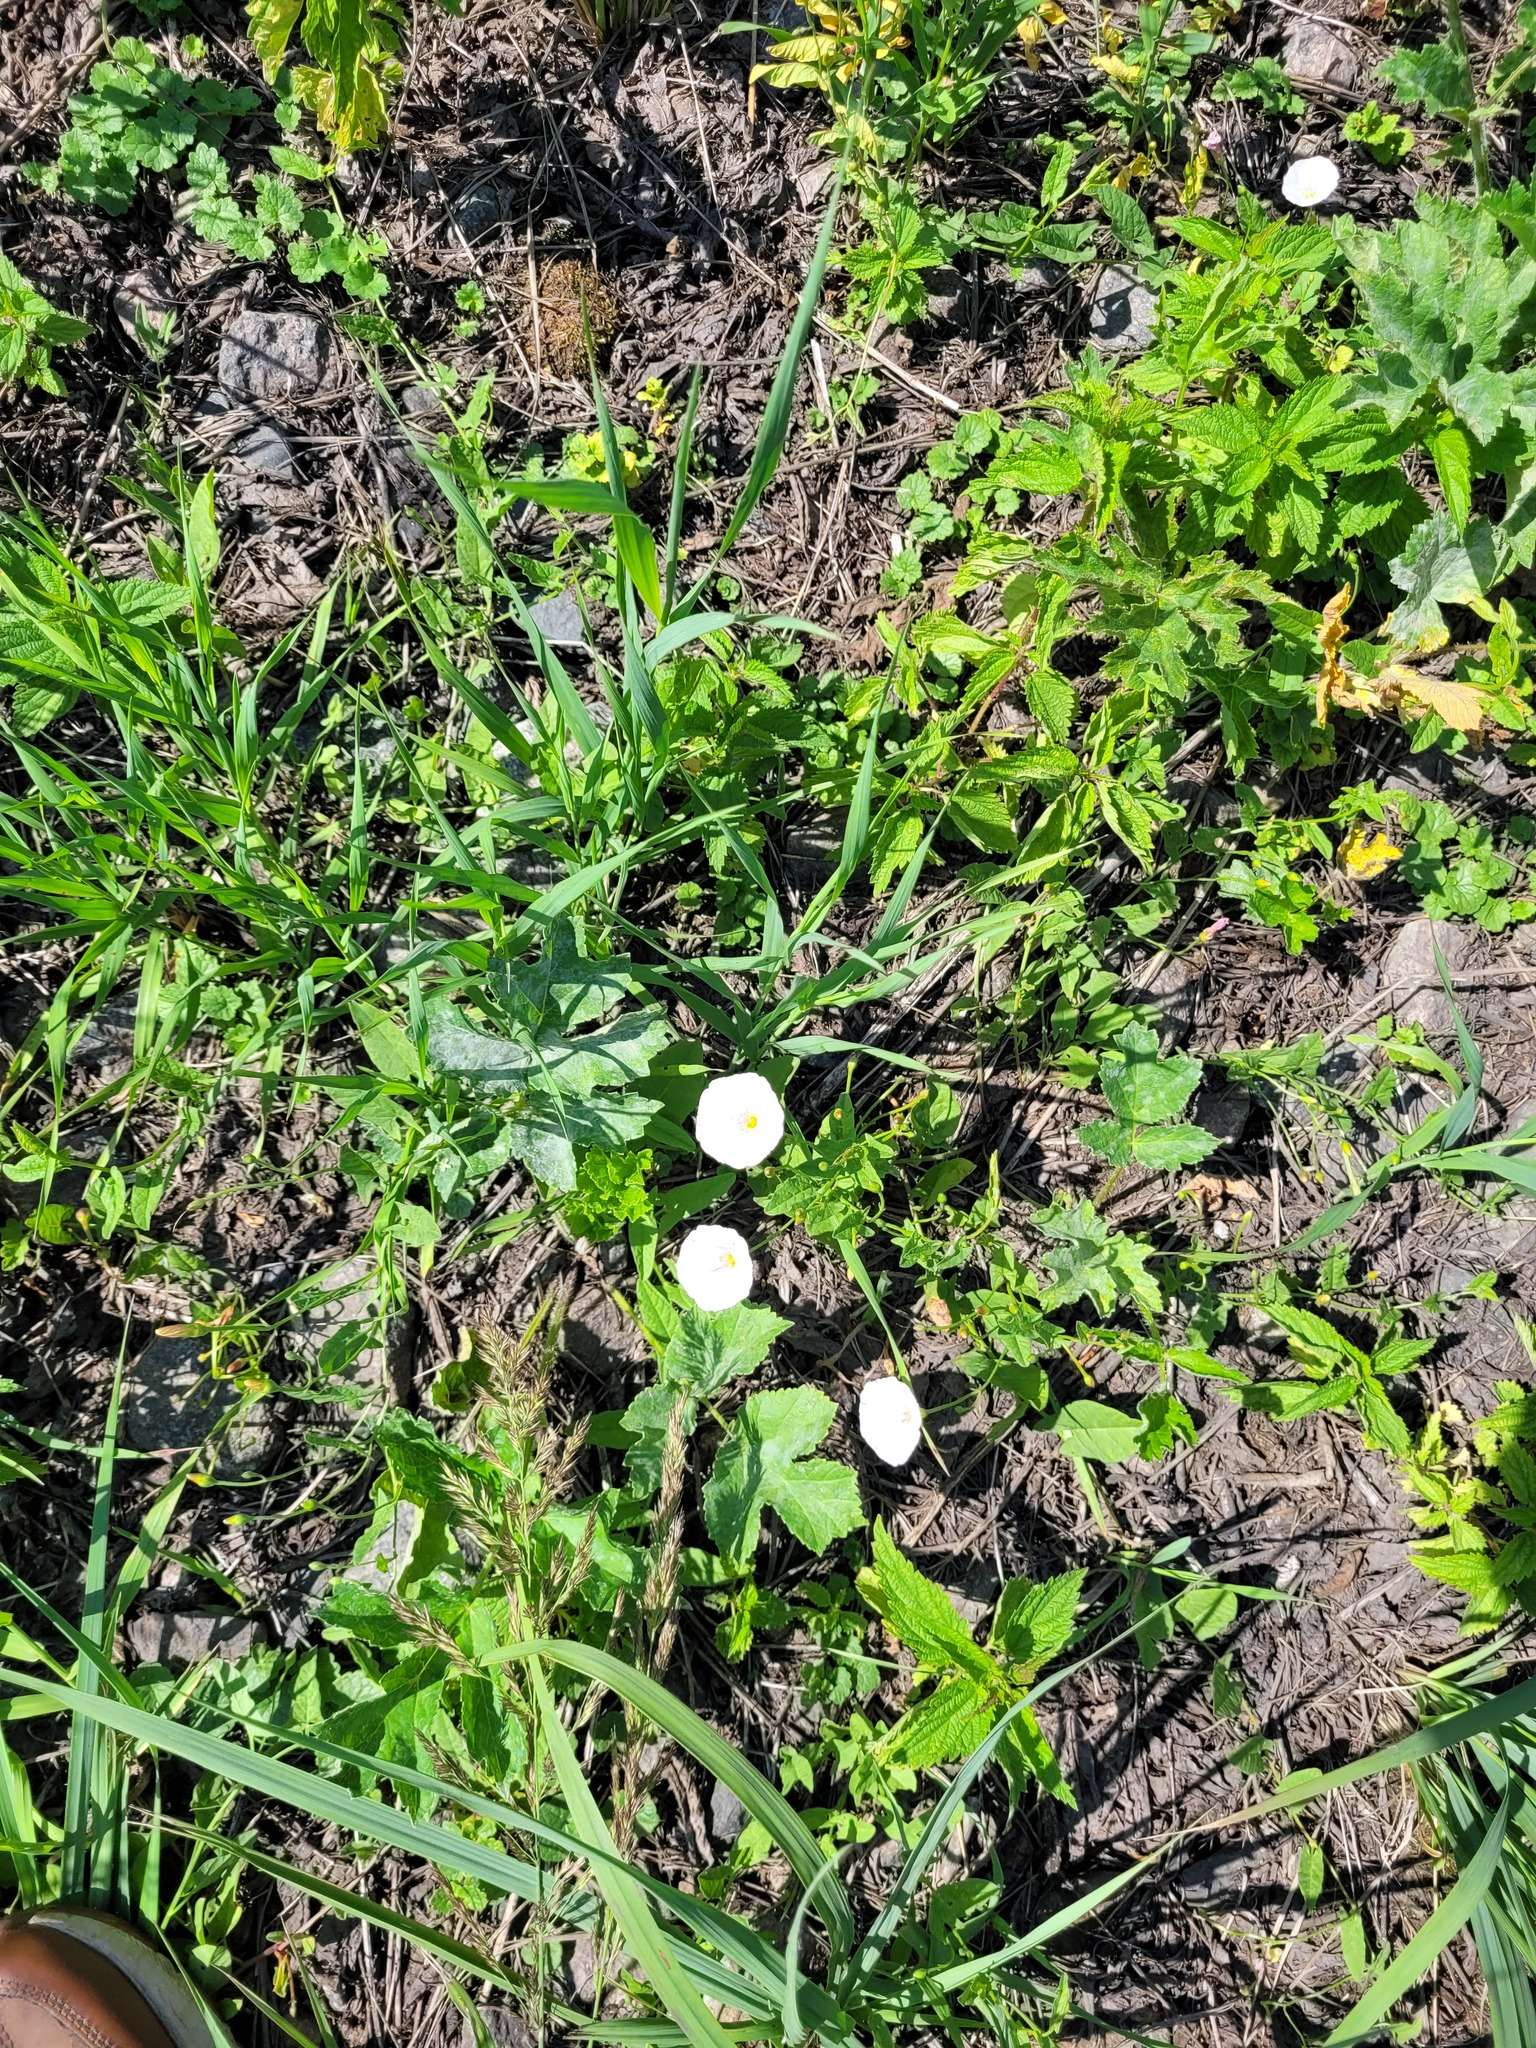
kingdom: Plantae
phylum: Tracheophyta
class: Magnoliopsida
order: Solanales
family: Convolvulaceae
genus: Convolvulus
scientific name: Convolvulus arvensis
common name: Field bindweed
